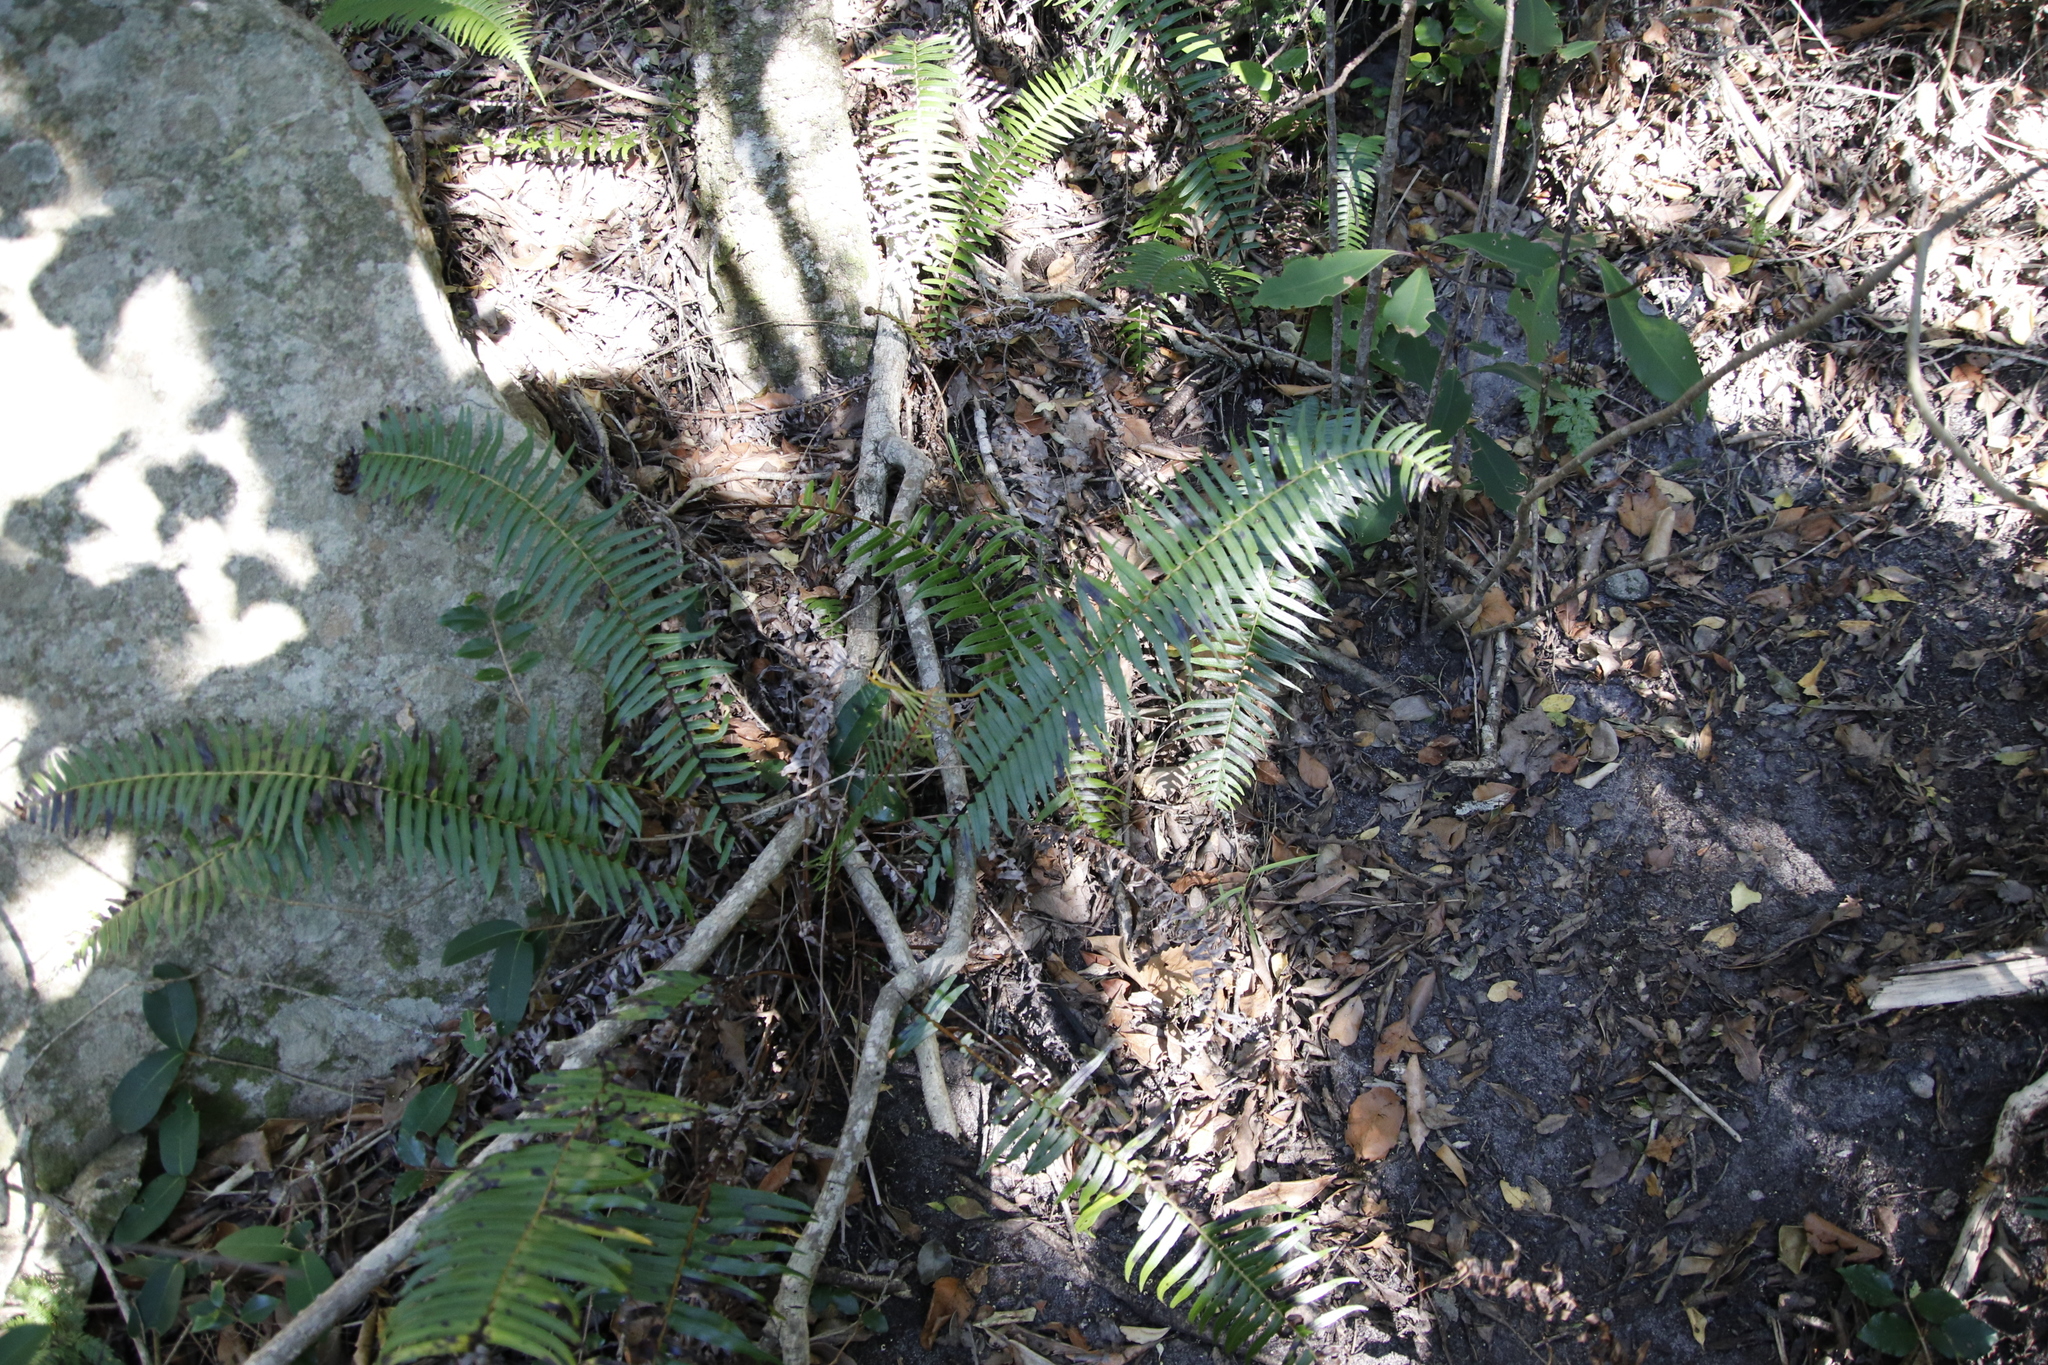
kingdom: Plantae
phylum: Tracheophyta
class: Polypodiopsida
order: Polypodiales
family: Blechnaceae
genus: Blechnum
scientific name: Blechnum punctulatum
